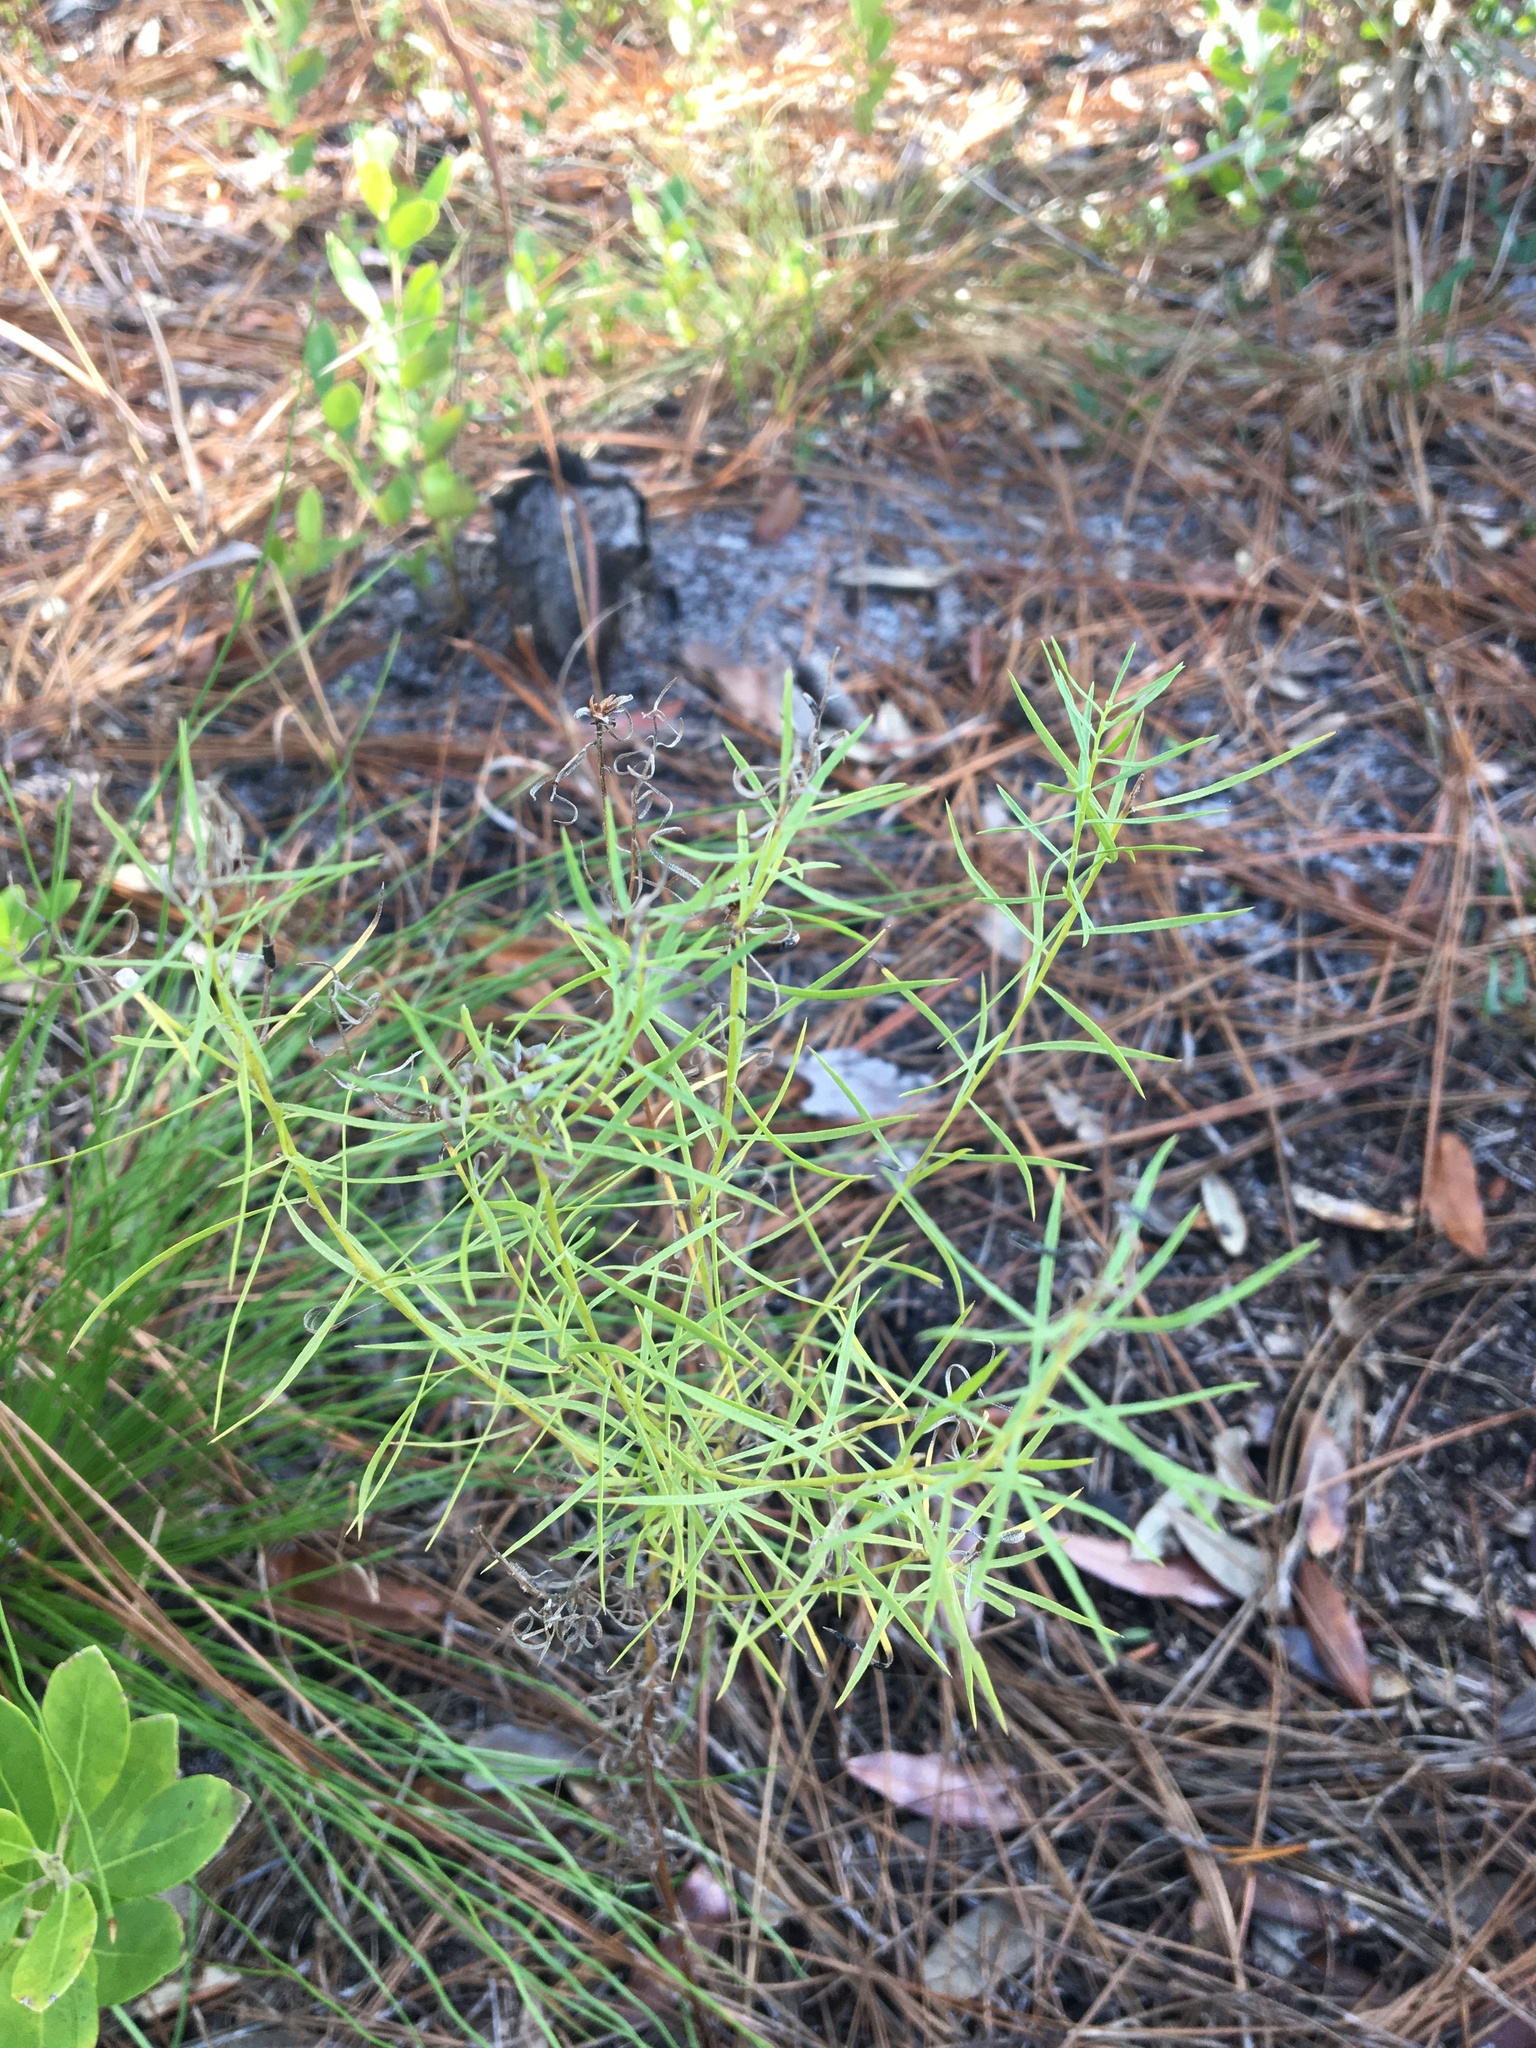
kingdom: Plantae
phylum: Tracheophyta
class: Magnoliopsida
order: Asterales
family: Asteraceae
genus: Euthamia
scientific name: Euthamia caroliniana
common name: Coastal plain goldentop
